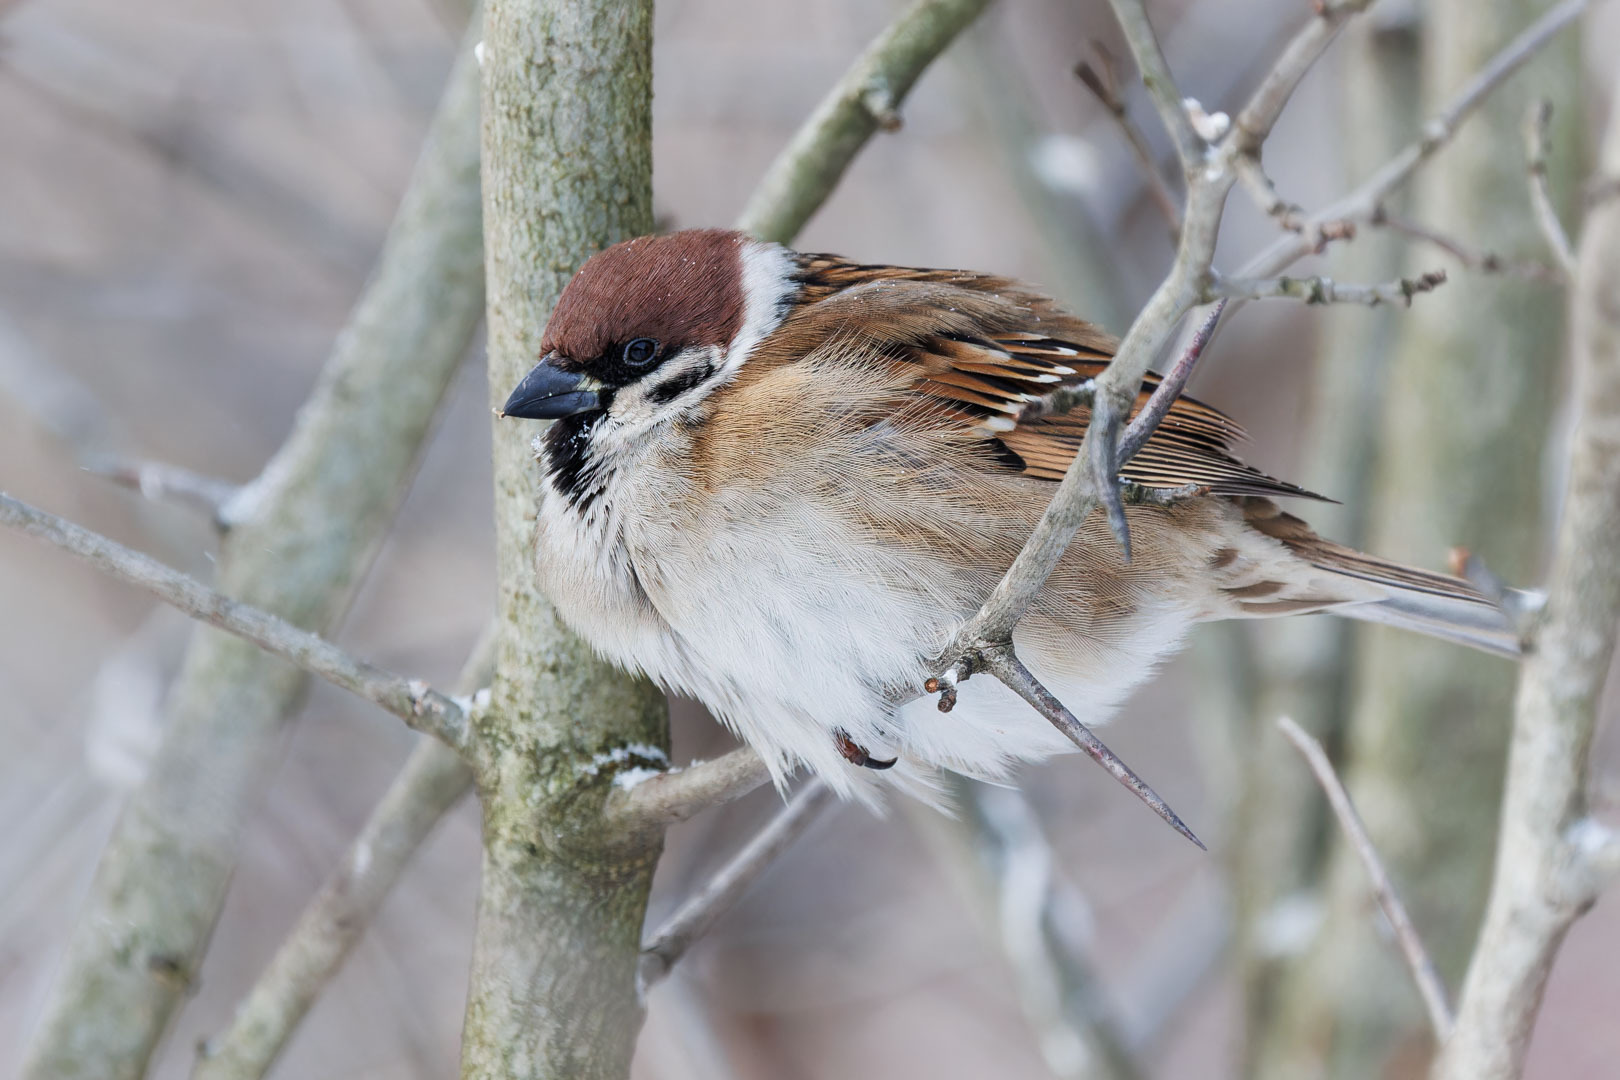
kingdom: Animalia
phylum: Chordata
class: Aves
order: Passeriformes
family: Passeridae
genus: Passer
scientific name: Passer montanus
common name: Eurasian tree sparrow
